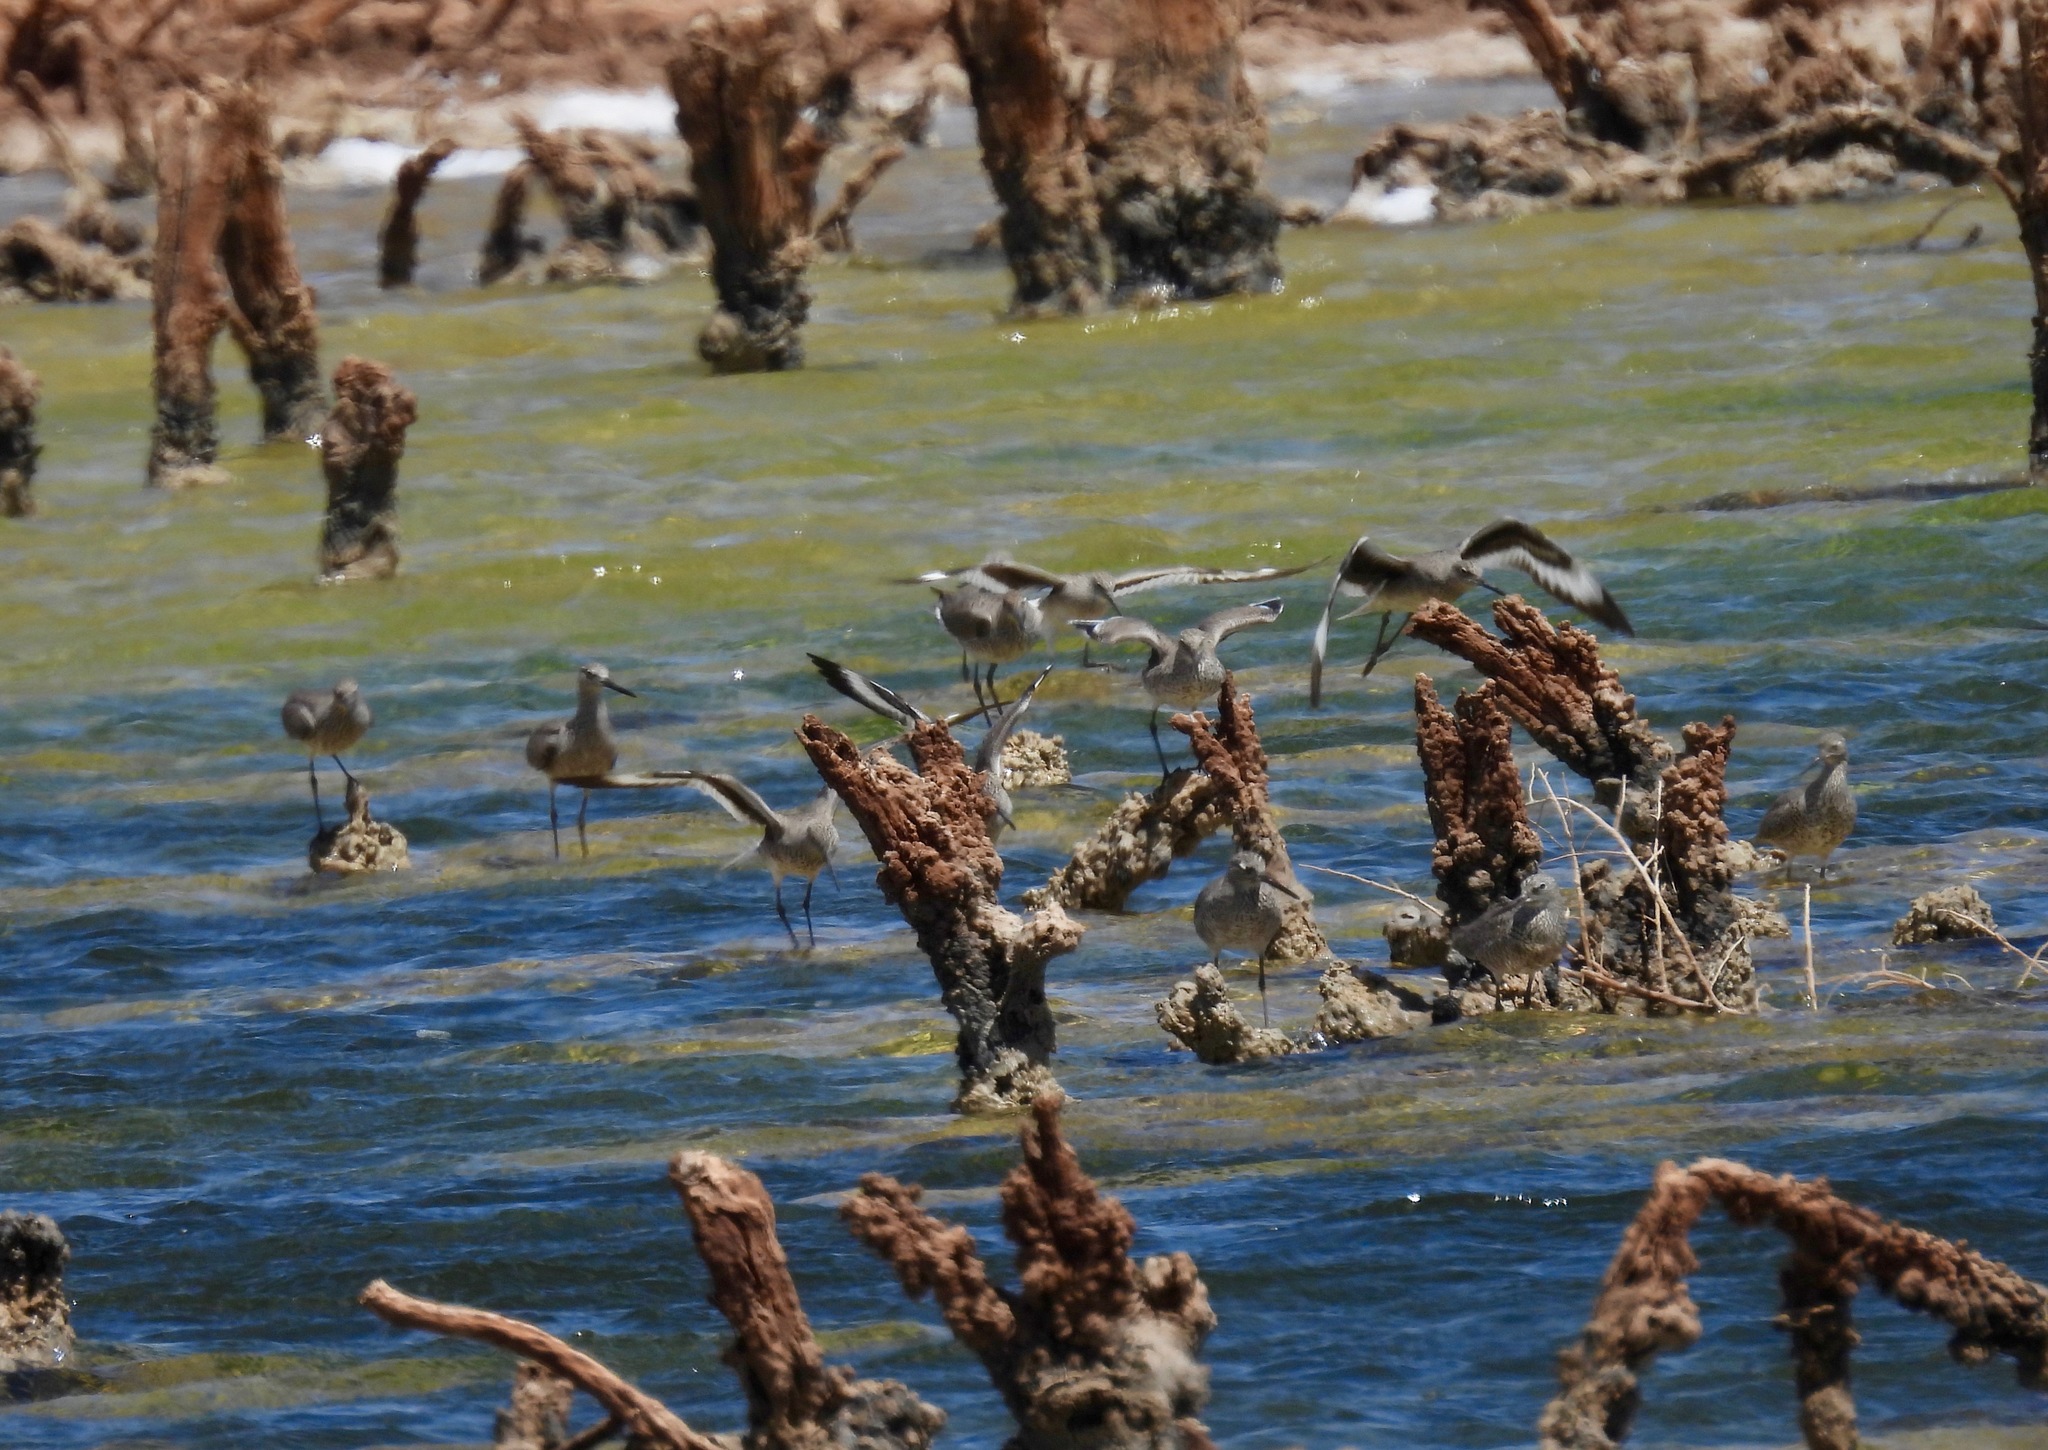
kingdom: Animalia
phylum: Chordata
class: Aves
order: Charadriiformes
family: Scolopacidae
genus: Tringa
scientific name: Tringa semipalmata
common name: Willet
